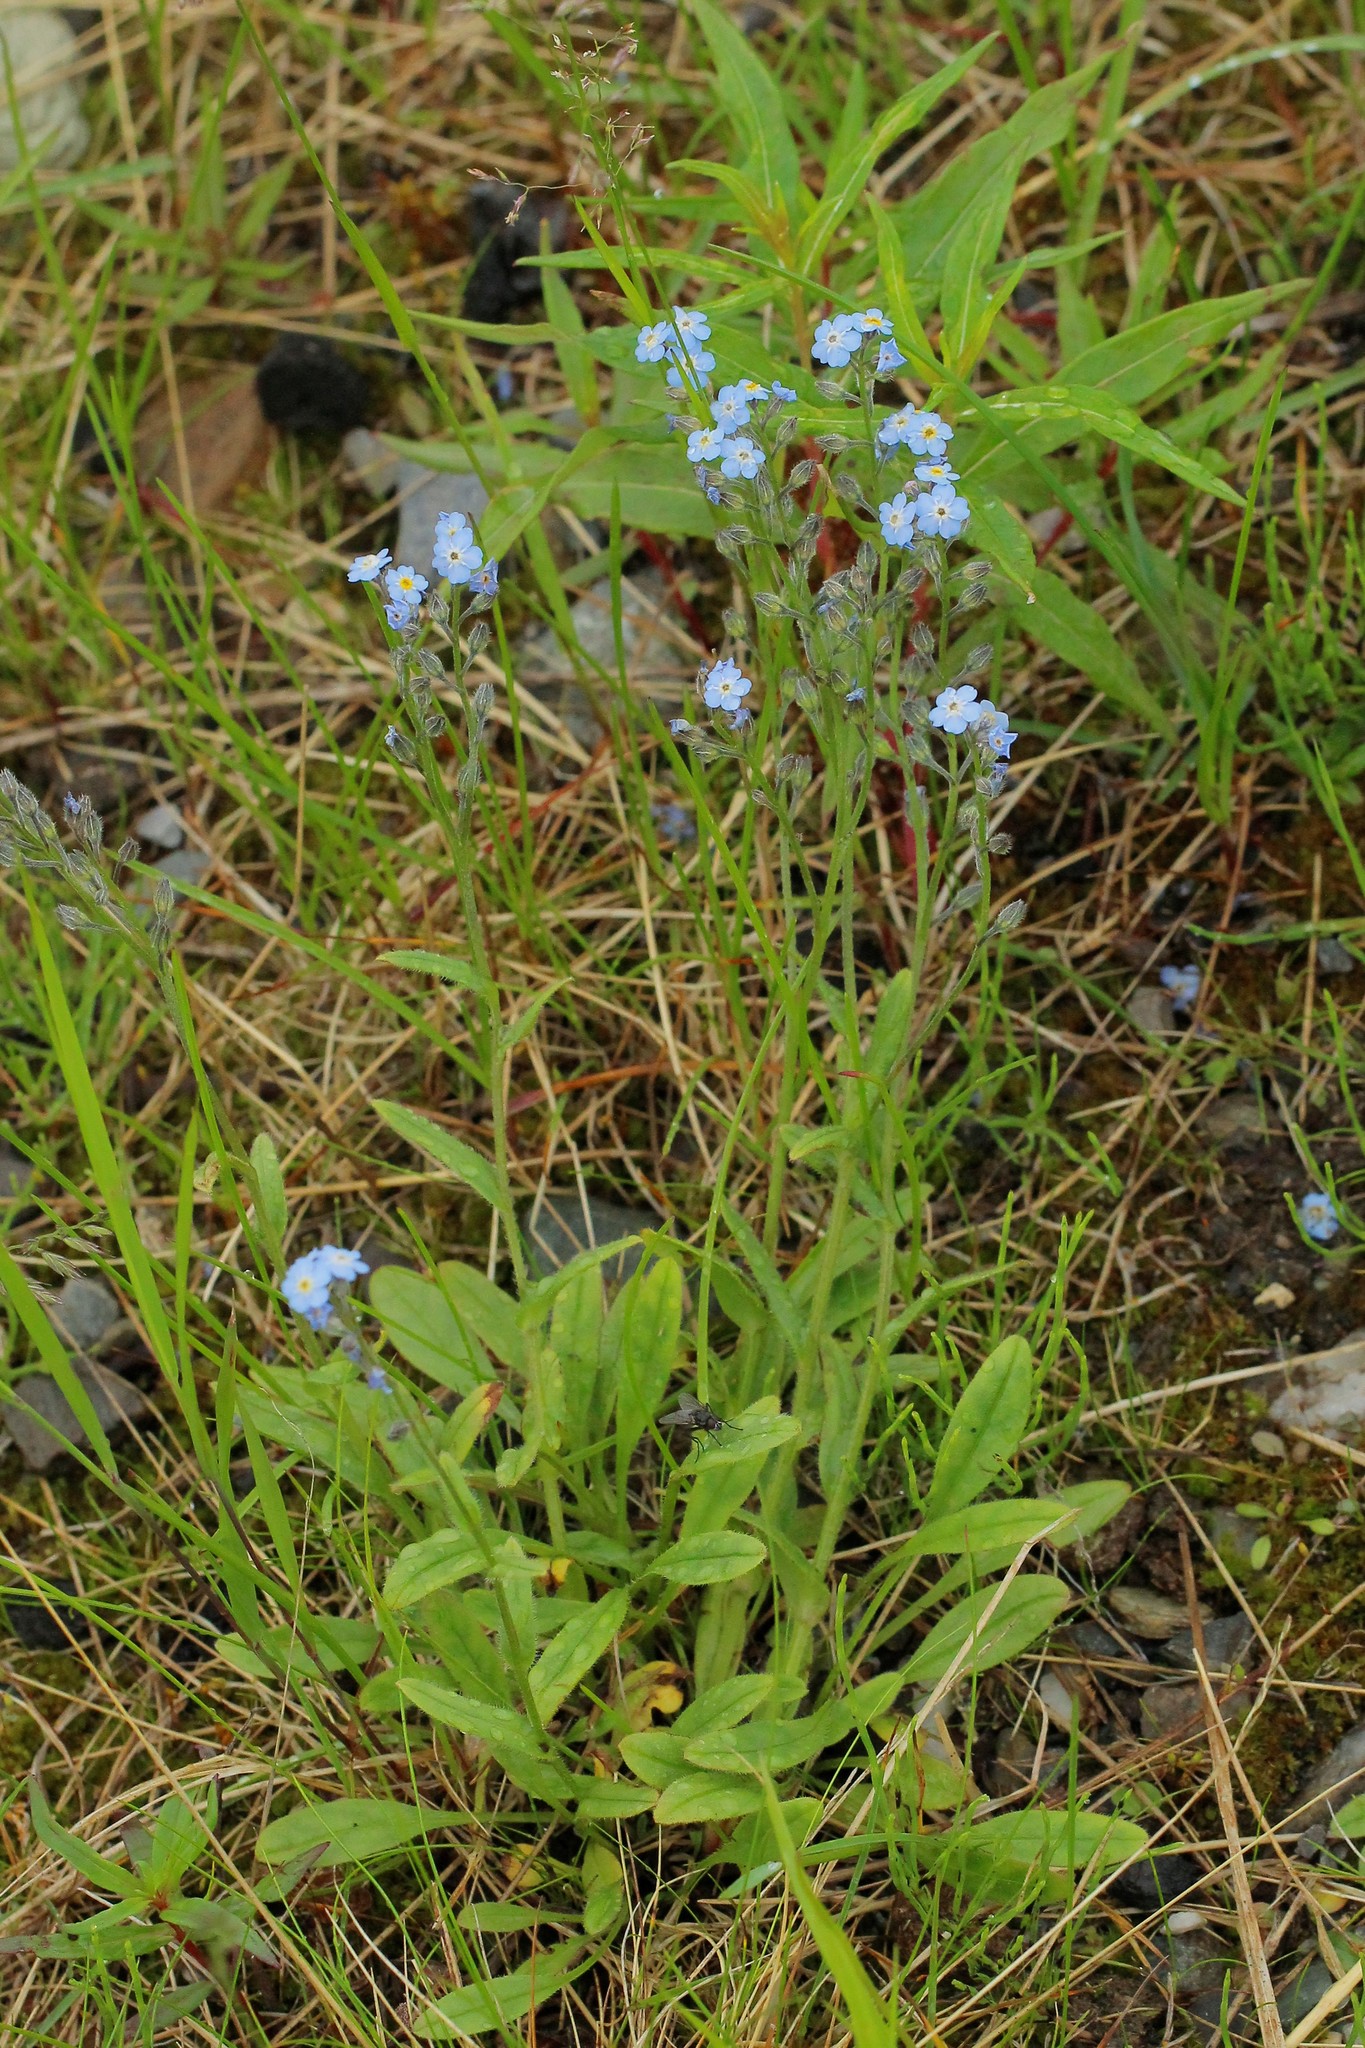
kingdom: Plantae
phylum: Tracheophyta
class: Magnoliopsida
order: Boraginales
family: Boraginaceae
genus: Myosotis
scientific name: Myosotis asiatica
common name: Asian forget-me-not
